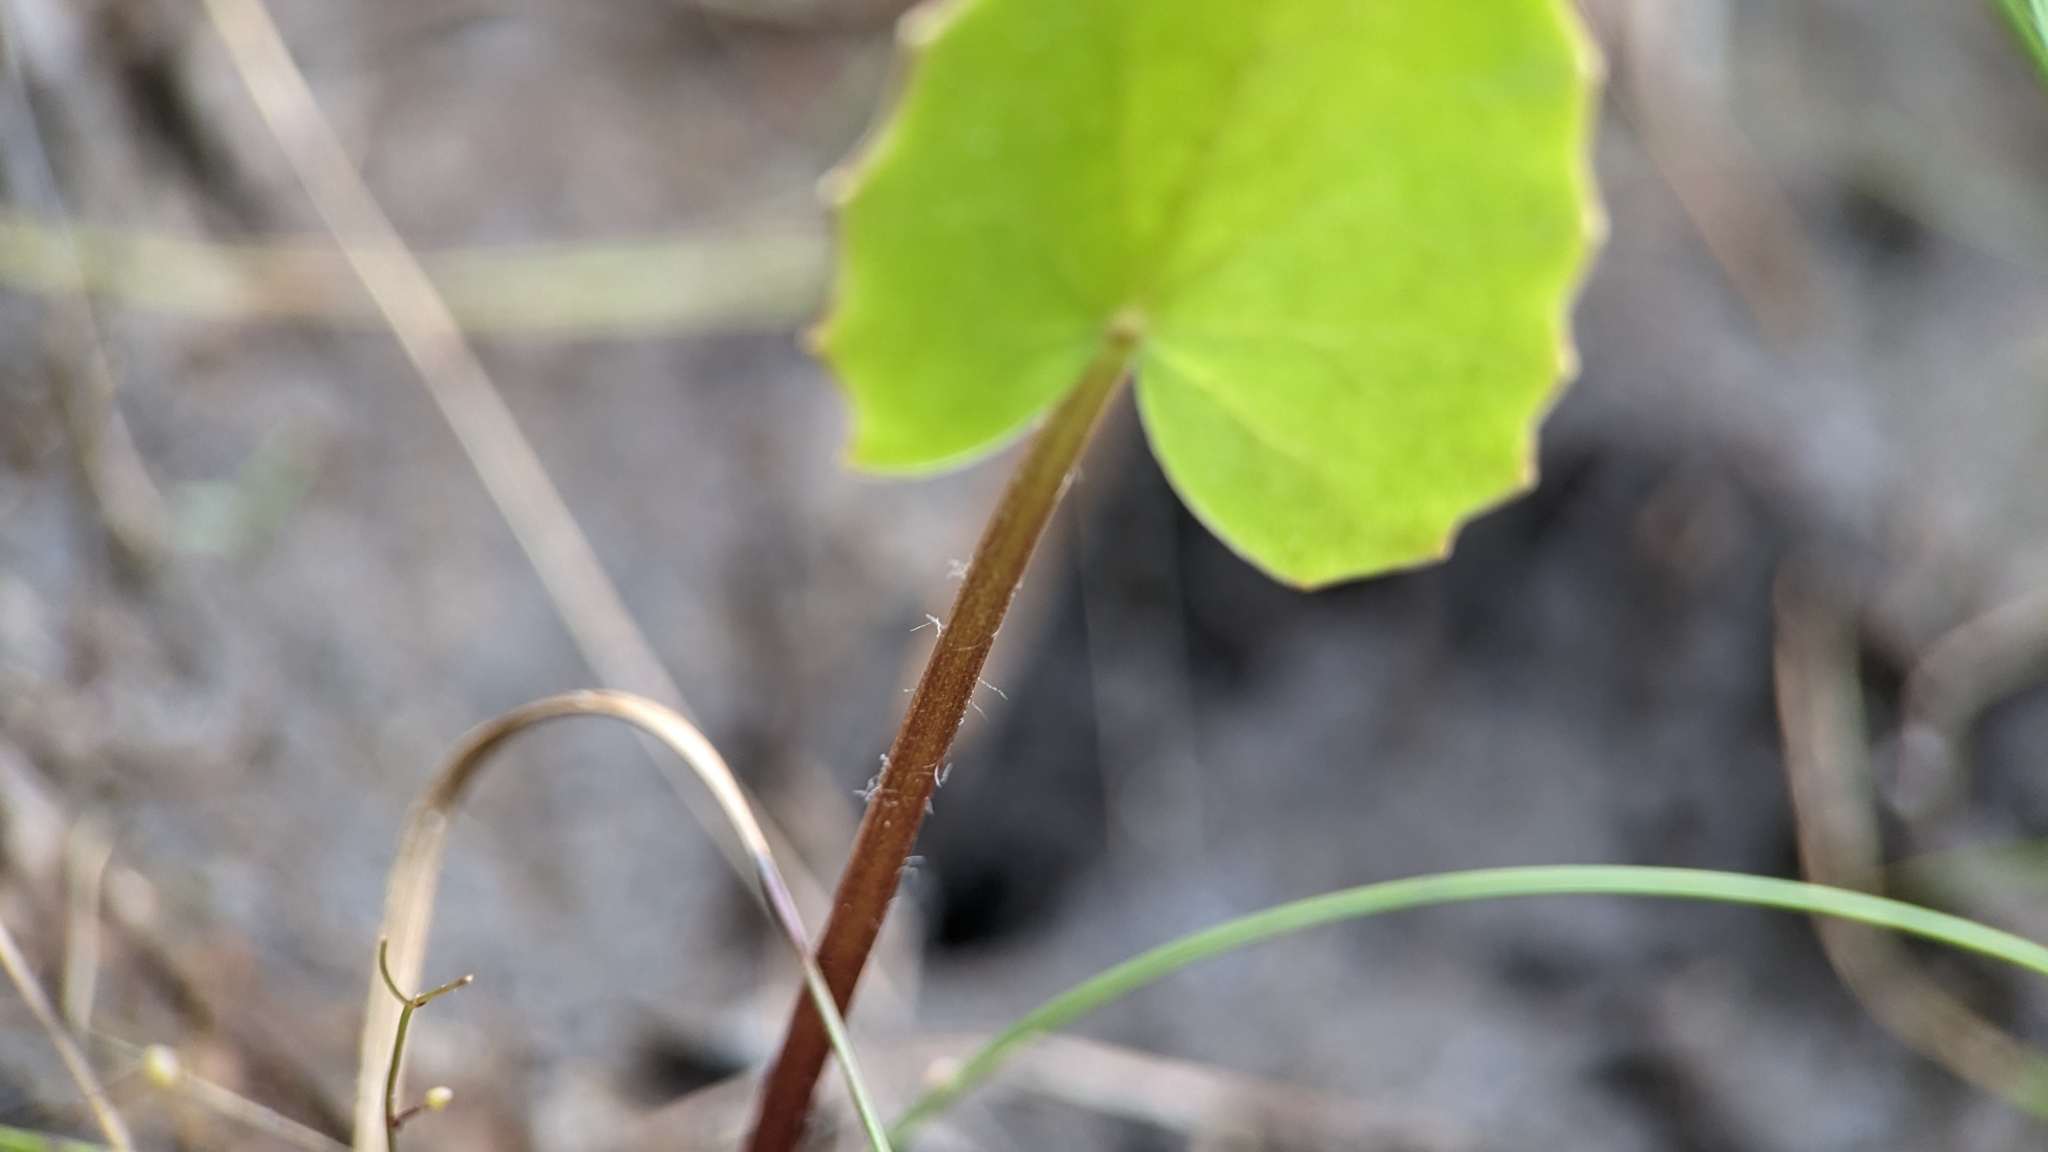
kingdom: Plantae
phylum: Tracheophyta
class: Magnoliopsida
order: Apiales
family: Apiaceae
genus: Centella
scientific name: Centella erecta
